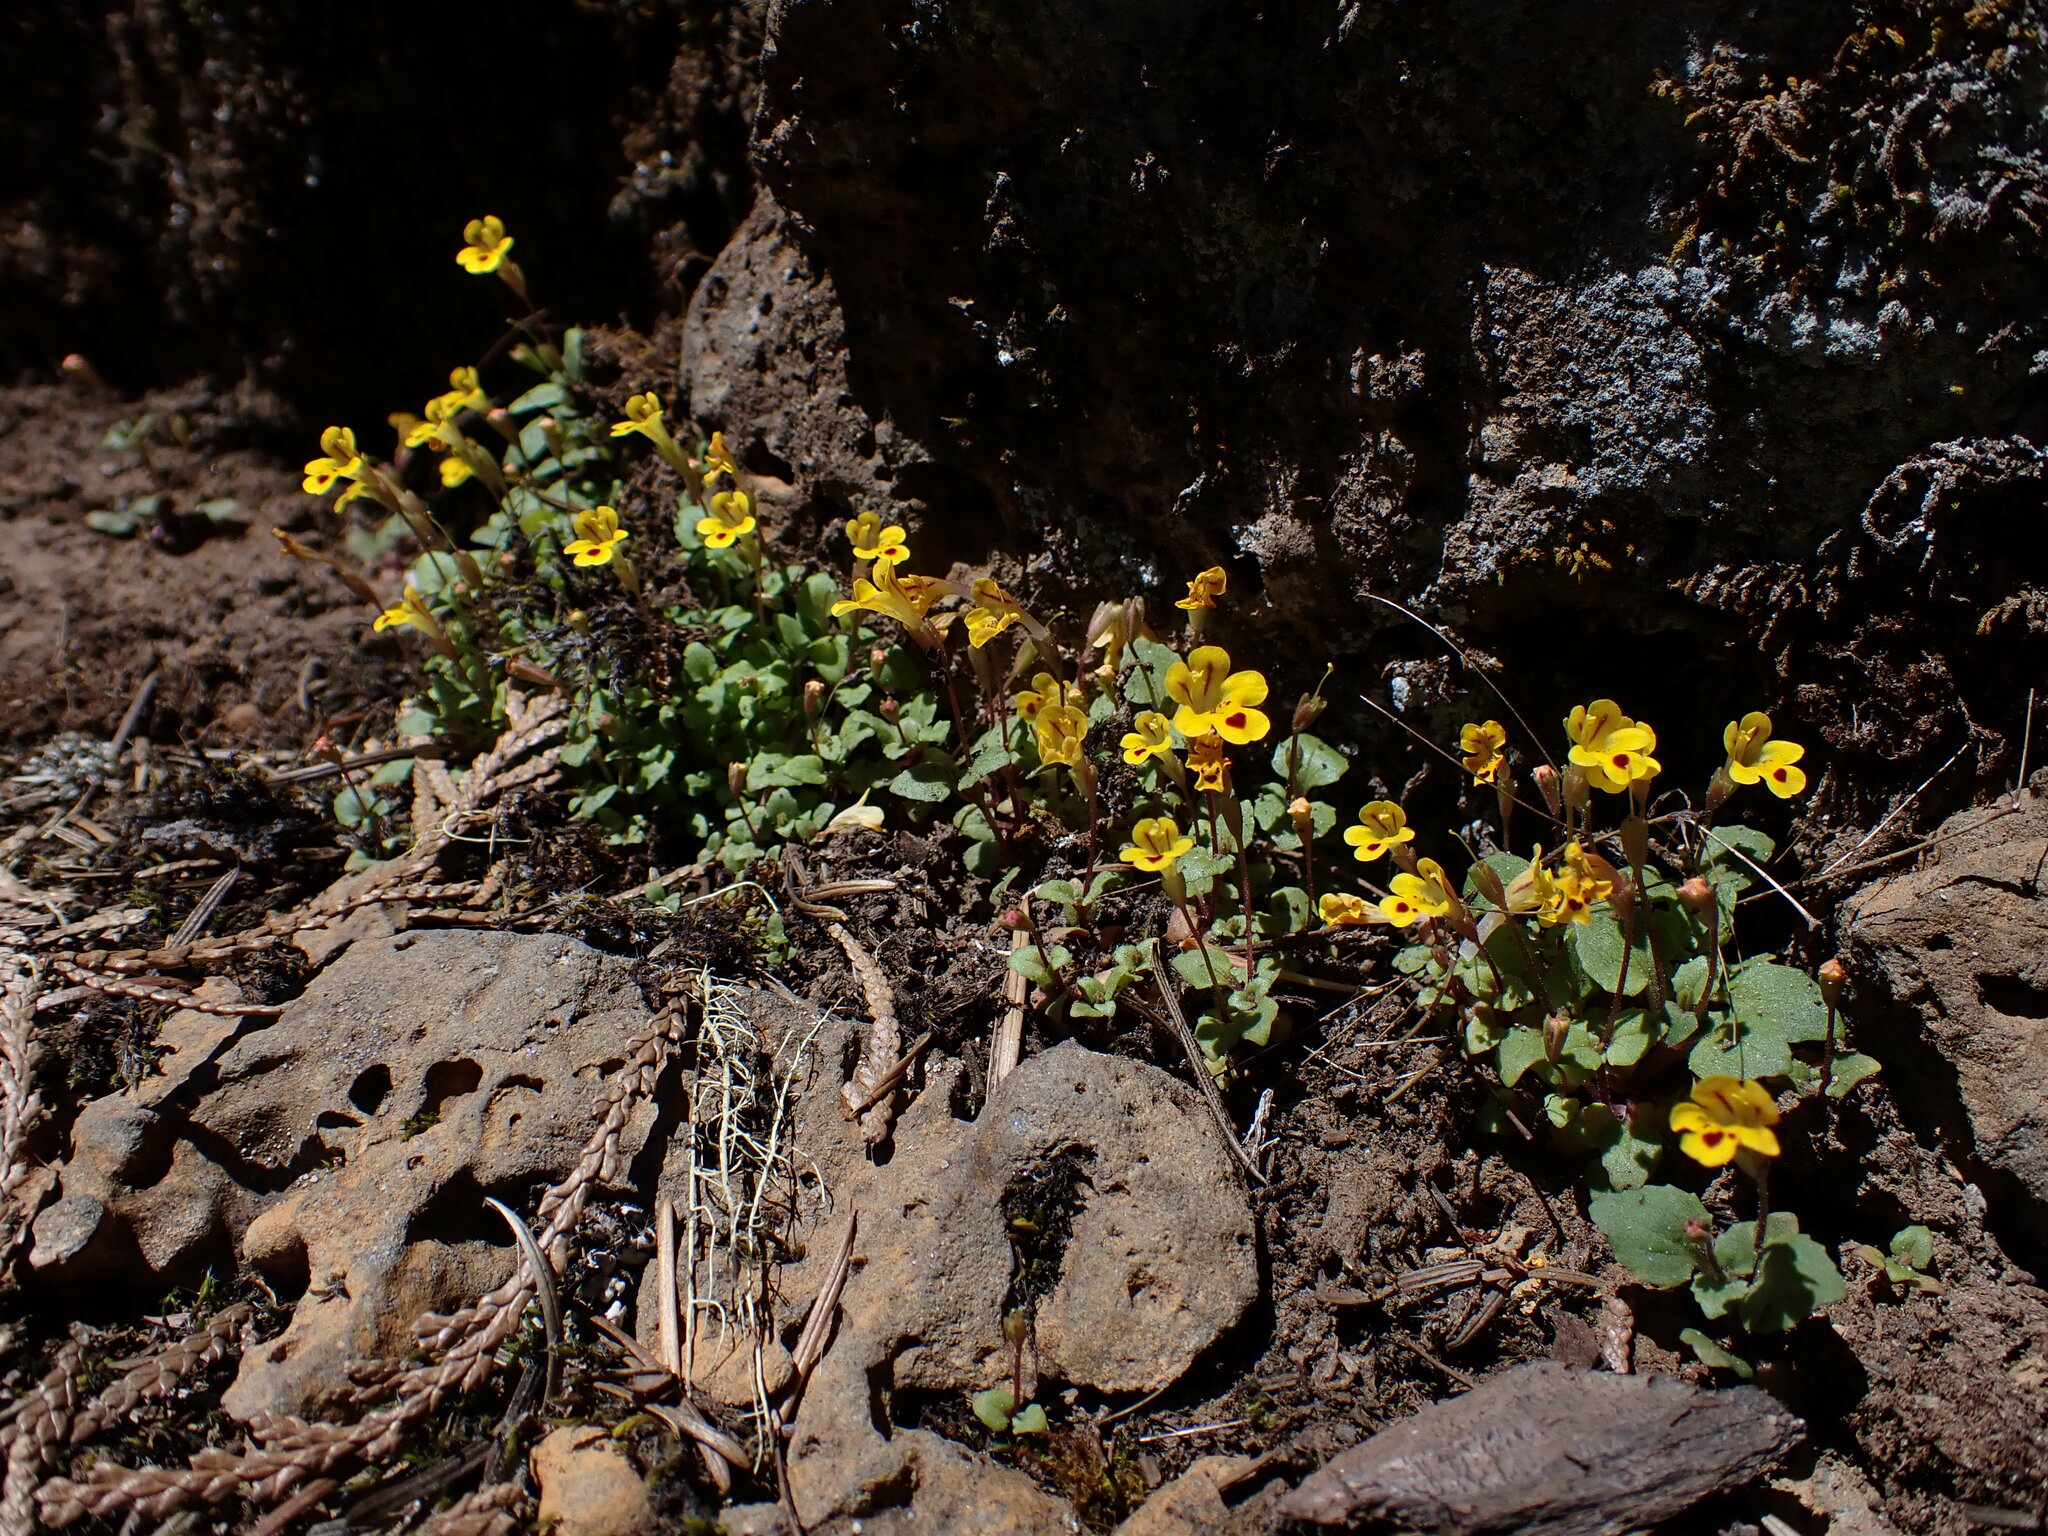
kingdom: Plantae
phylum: Tracheophyta
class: Magnoliopsida
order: Lamiales
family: Phrymaceae
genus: Erythranthe
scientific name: Erythranthe alsinoides
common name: Chickweed monkeyflower
